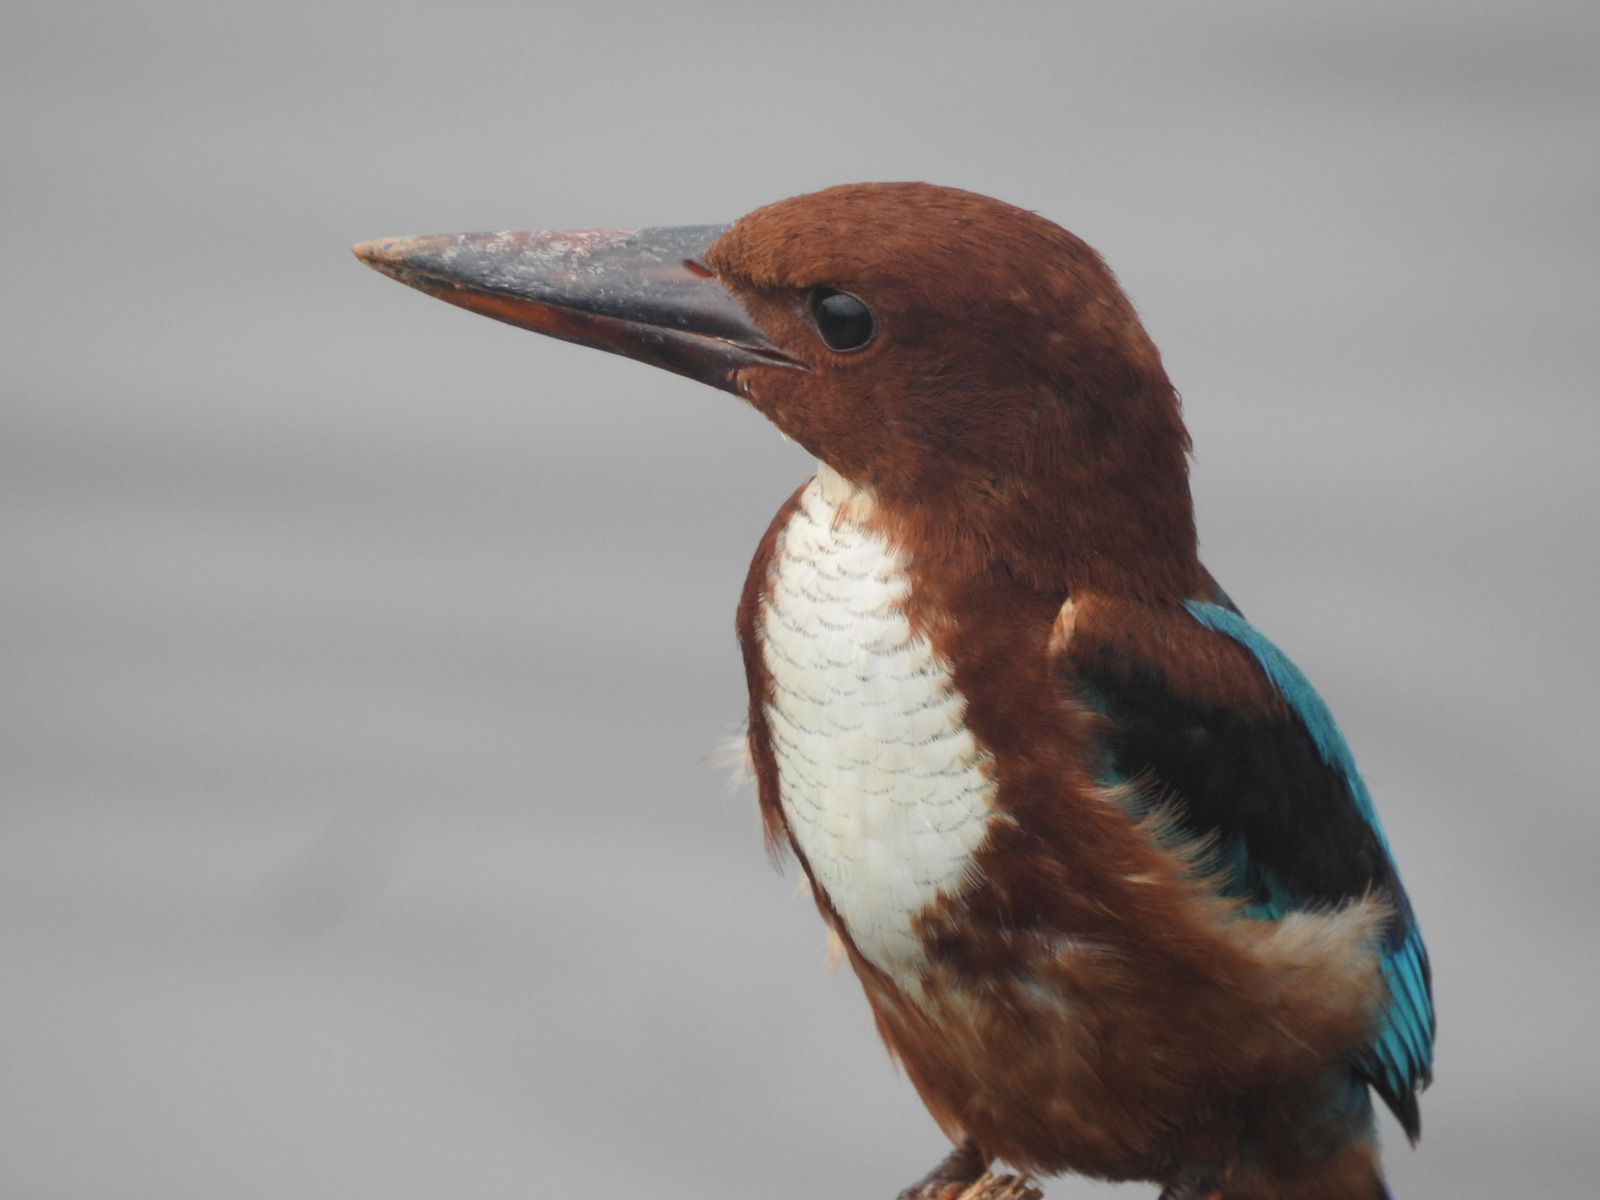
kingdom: Animalia
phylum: Chordata
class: Aves
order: Coraciiformes
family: Alcedinidae
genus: Halcyon
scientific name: Halcyon smyrnensis
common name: White-throated kingfisher
